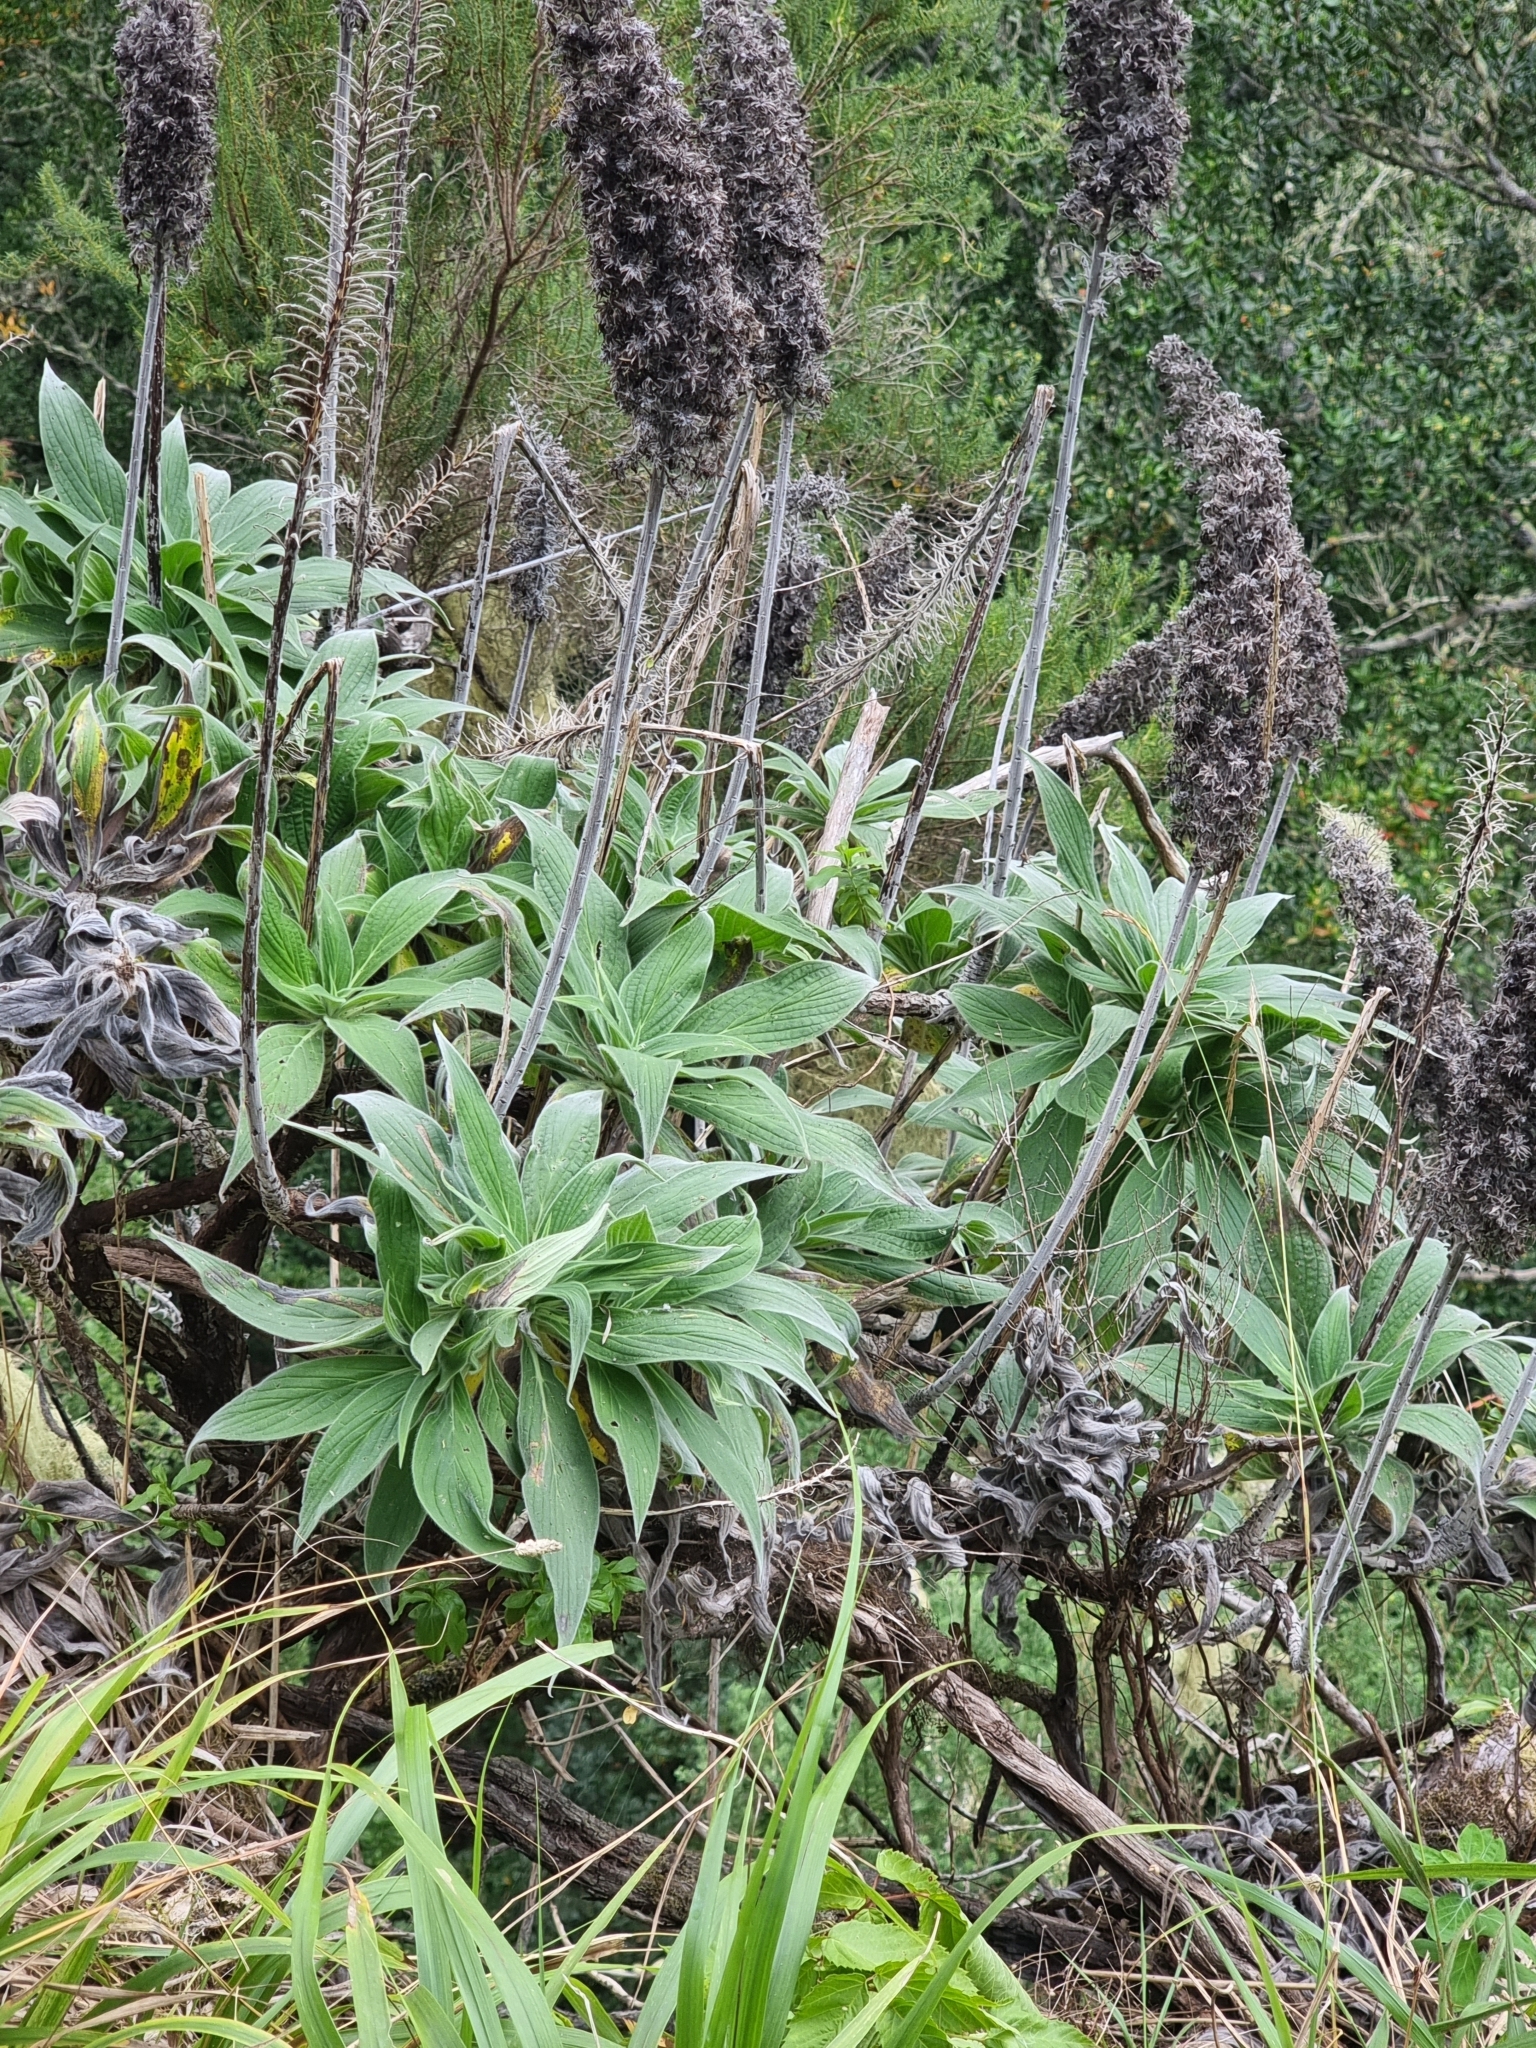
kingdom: Plantae
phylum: Tracheophyta
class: Magnoliopsida
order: Boraginales
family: Boraginaceae
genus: Echium
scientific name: Echium candicans
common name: Pride of madeira
